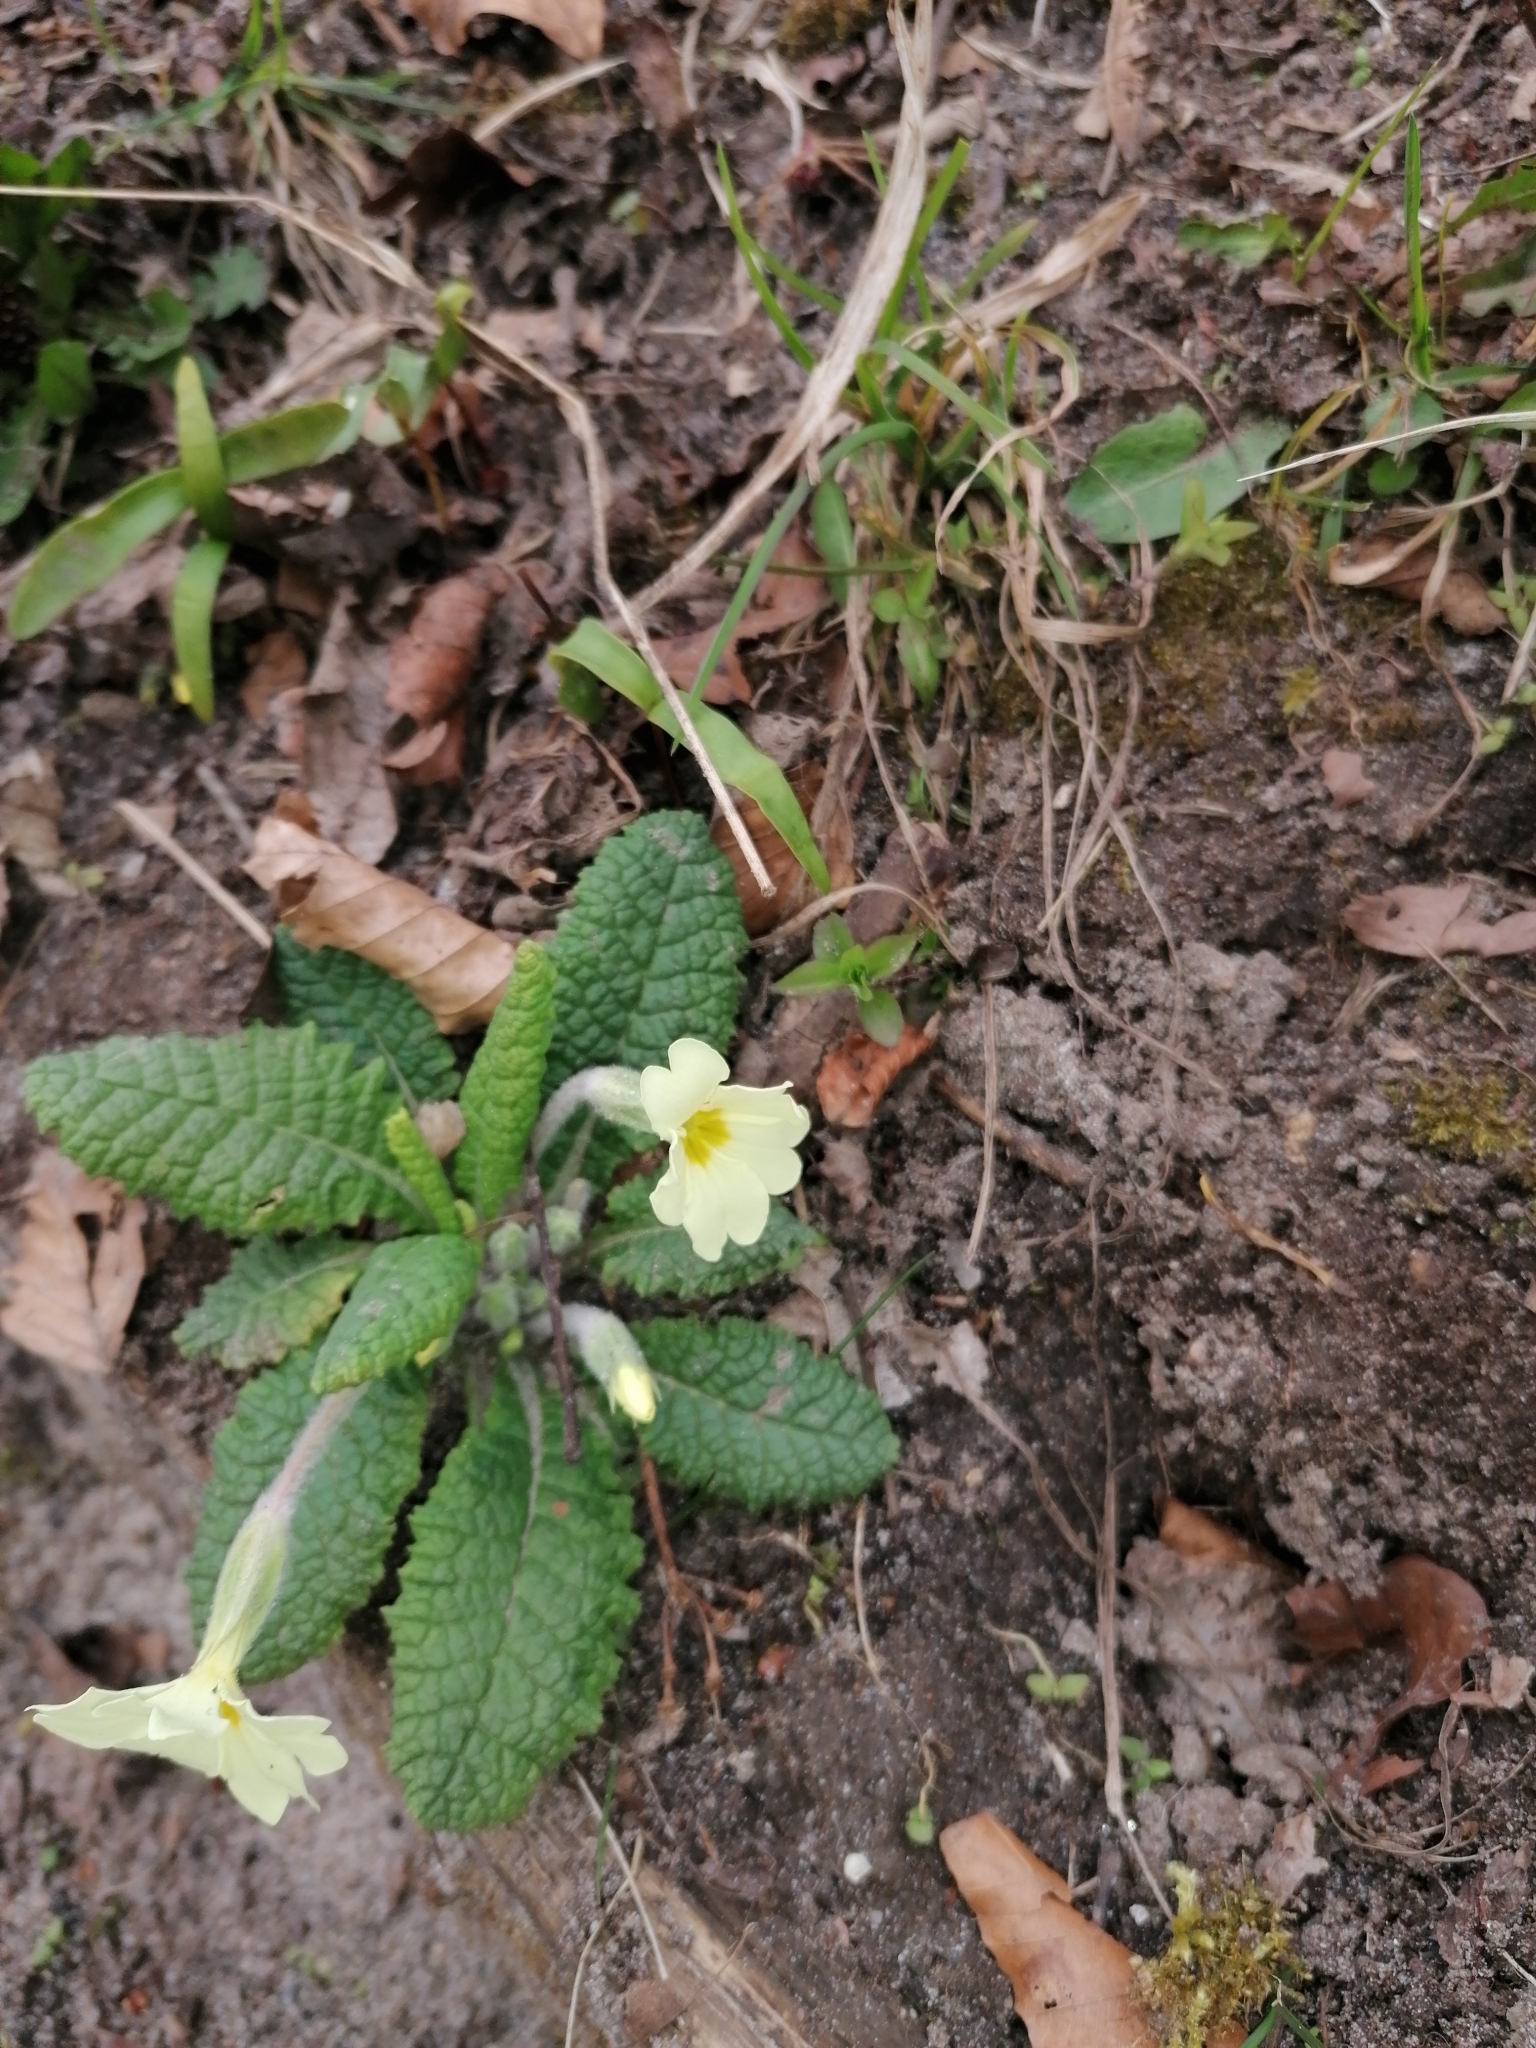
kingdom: Plantae
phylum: Tracheophyta
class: Magnoliopsida
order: Ericales
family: Primulaceae
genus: Primula
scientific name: Primula vulgaris
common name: Primrose
